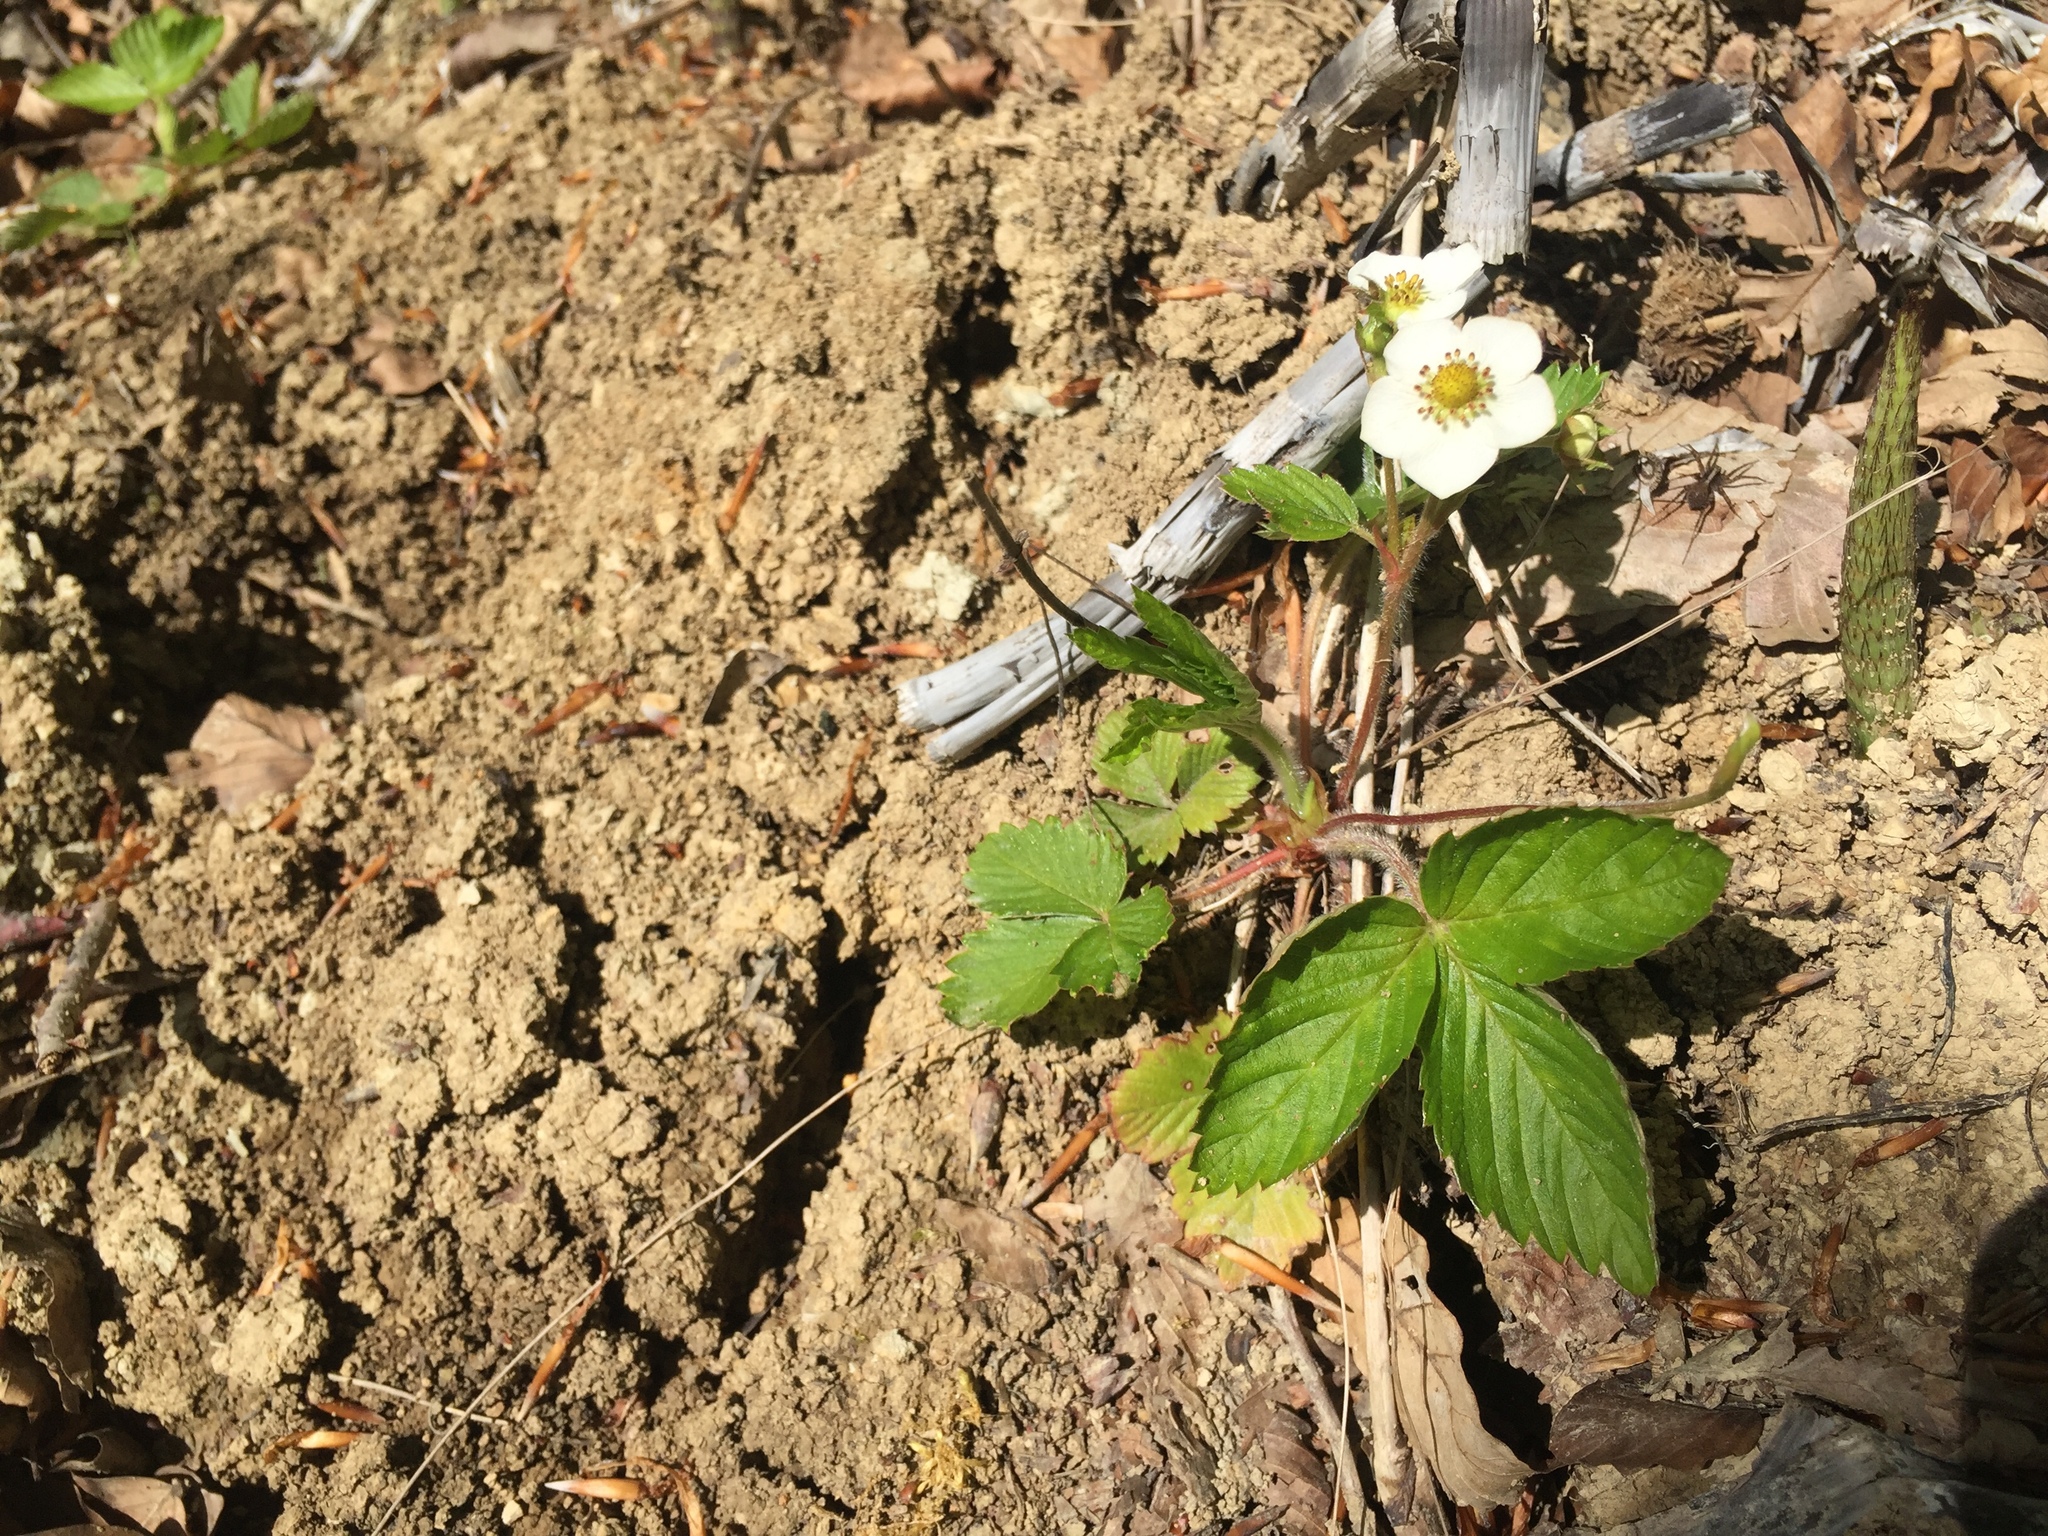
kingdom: Plantae
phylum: Tracheophyta
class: Magnoliopsida
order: Rosales
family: Rosaceae
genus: Fragaria
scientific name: Fragaria vesca
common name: Wild strawberry
